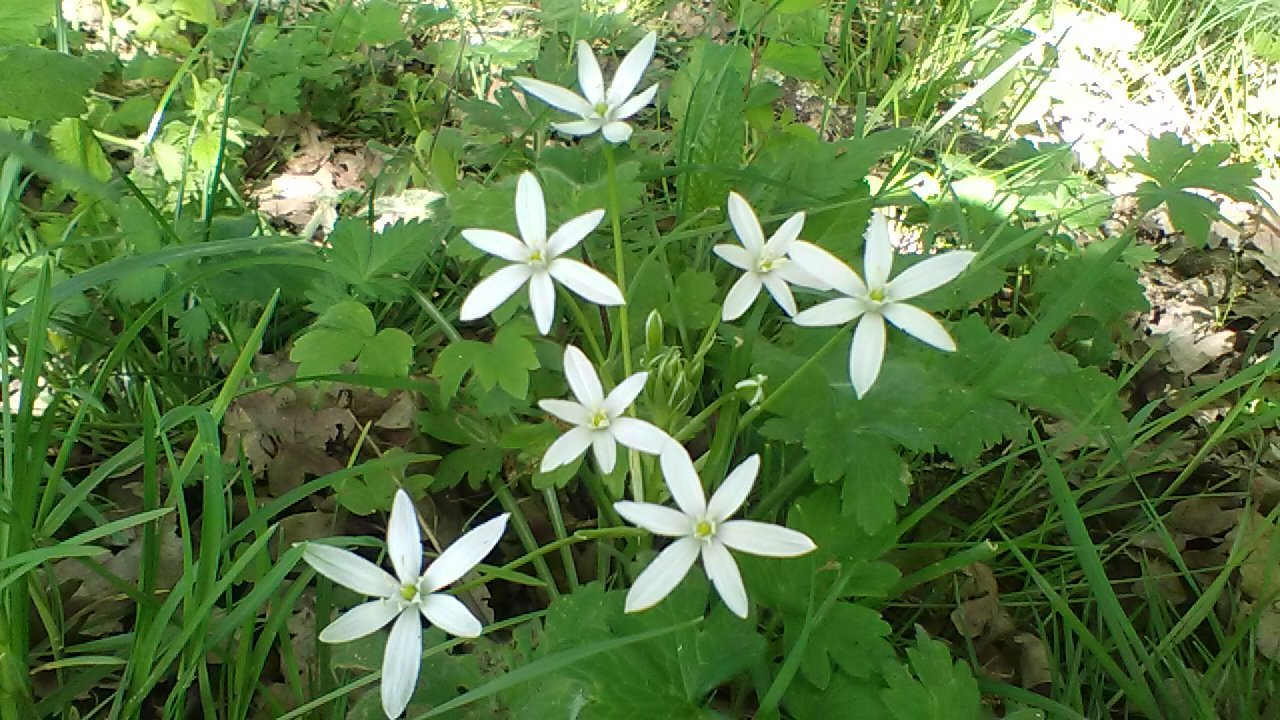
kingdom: Plantae
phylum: Tracheophyta
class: Liliopsida
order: Asparagales
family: Asparagaceae
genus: Ornithogalum
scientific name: Ornithogalum woronowii
